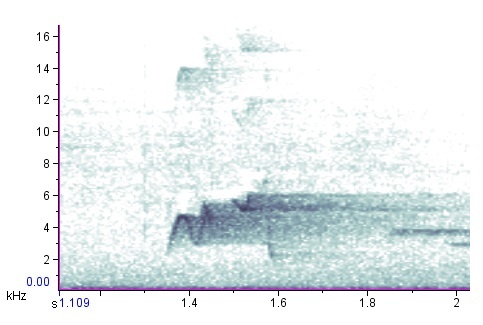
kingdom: Animalia
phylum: Chordata
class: Aves
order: Passeriformes
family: Tyrannidae
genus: Empidonax
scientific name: Empidonax virescens
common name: Acadian flycatcher
